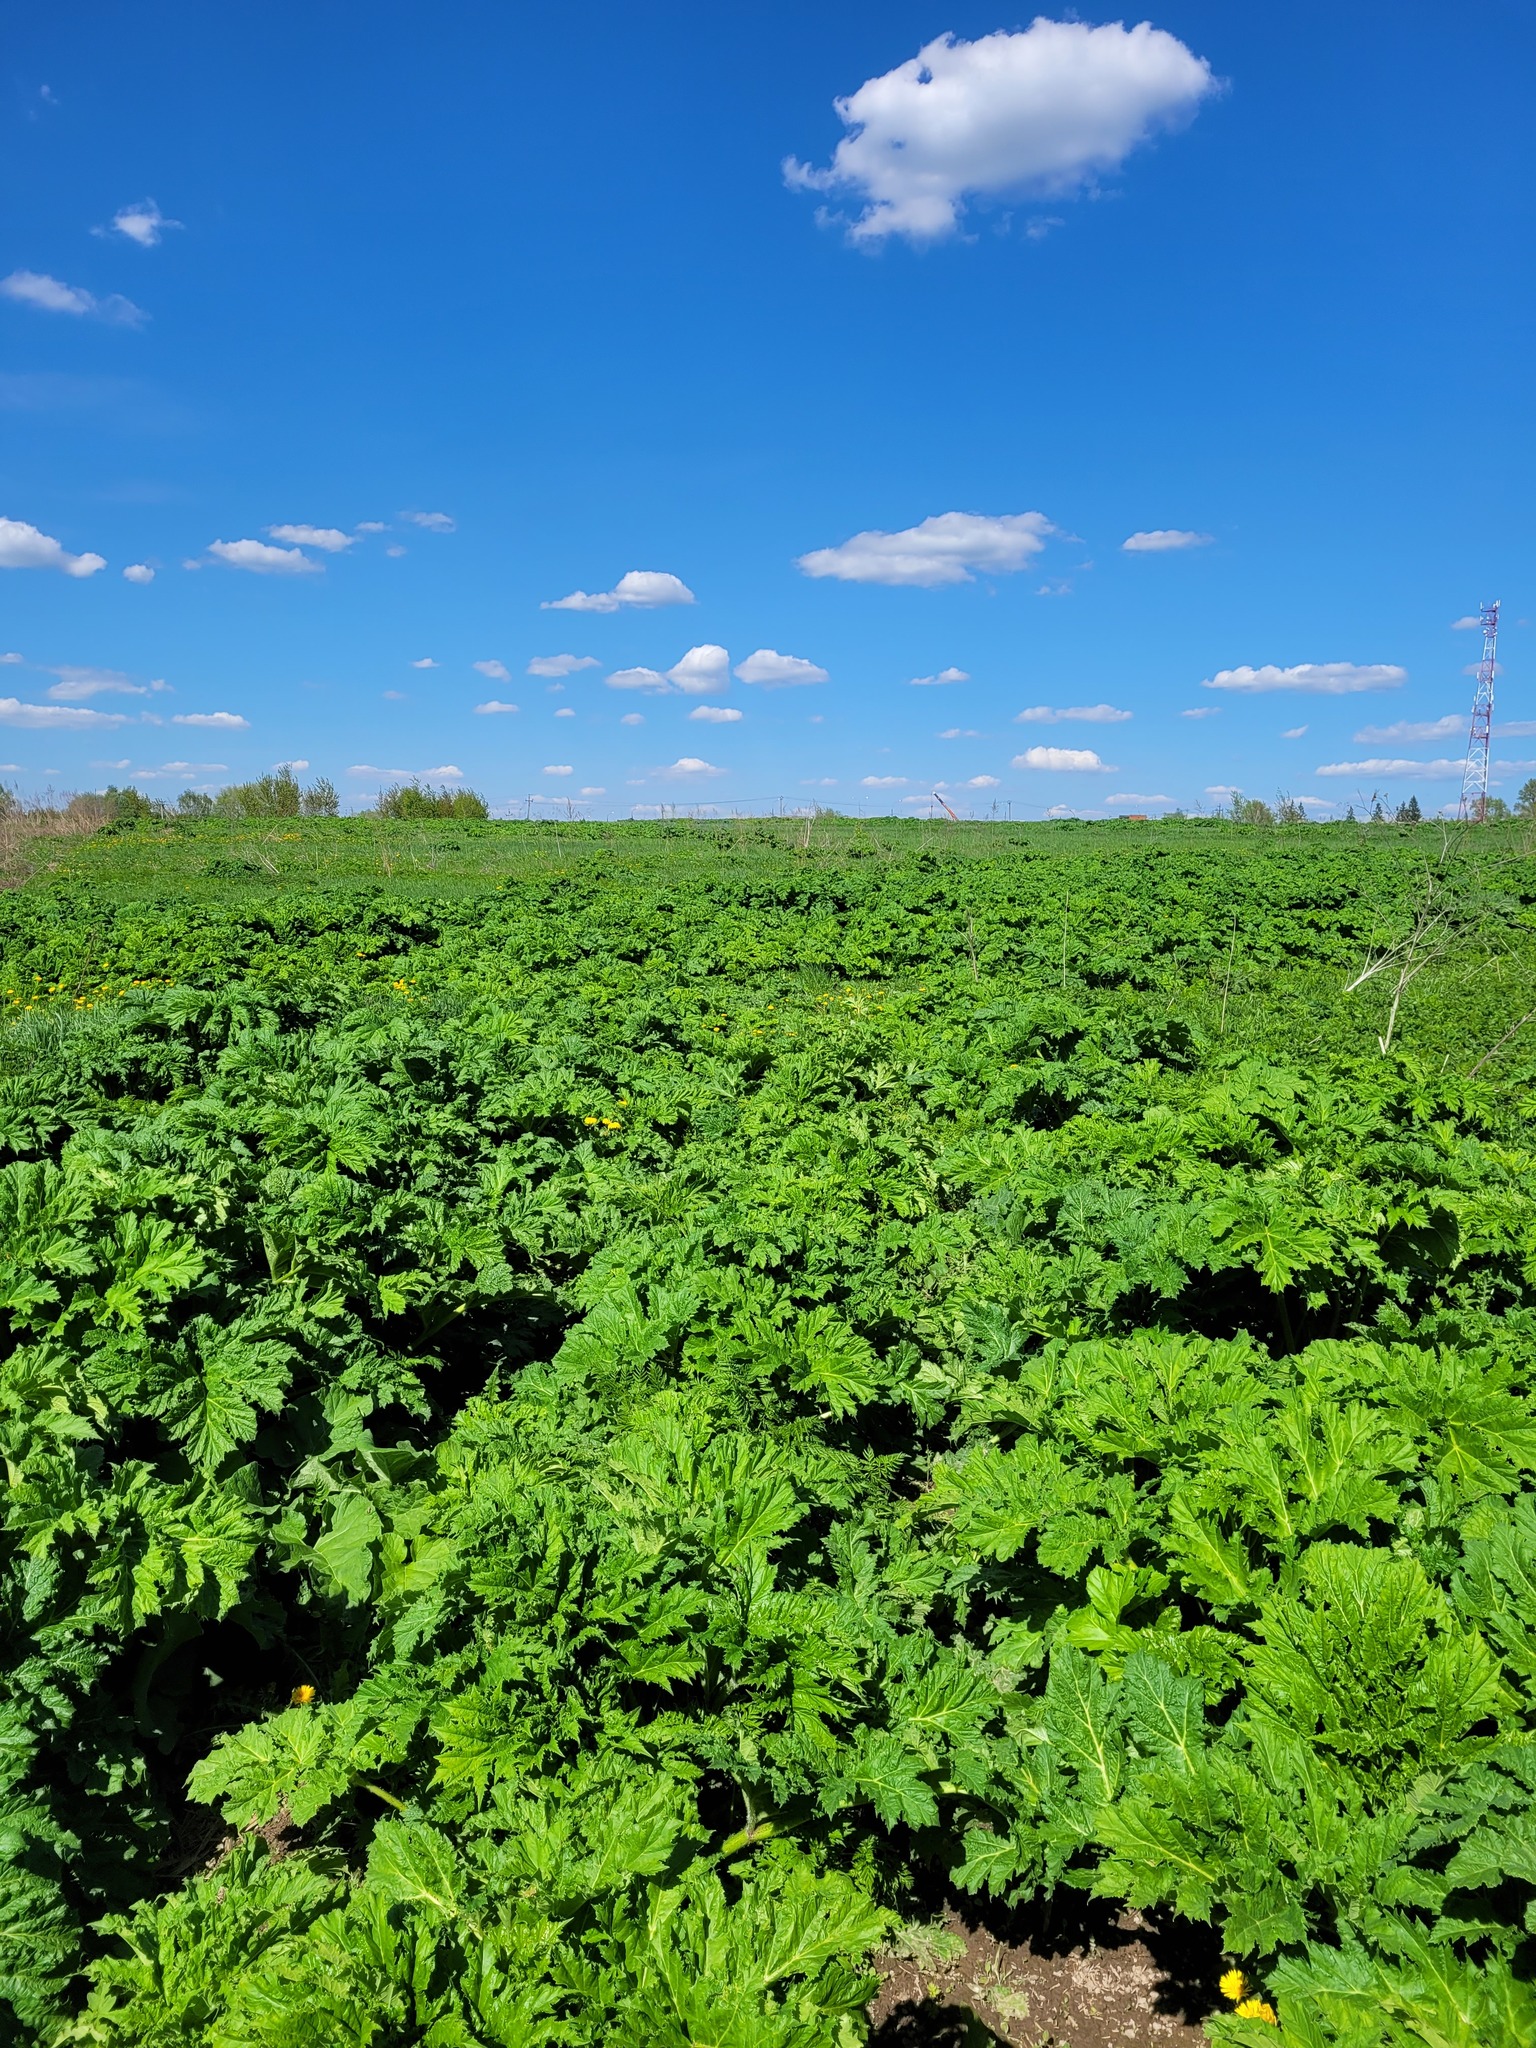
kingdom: Plantae
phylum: Tracheophyta
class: Magnoliopsida
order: Apiales
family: Apiaceae
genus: Heracleum
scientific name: Heracleum sosnowskyi
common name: Sosnowsky's hogweed
